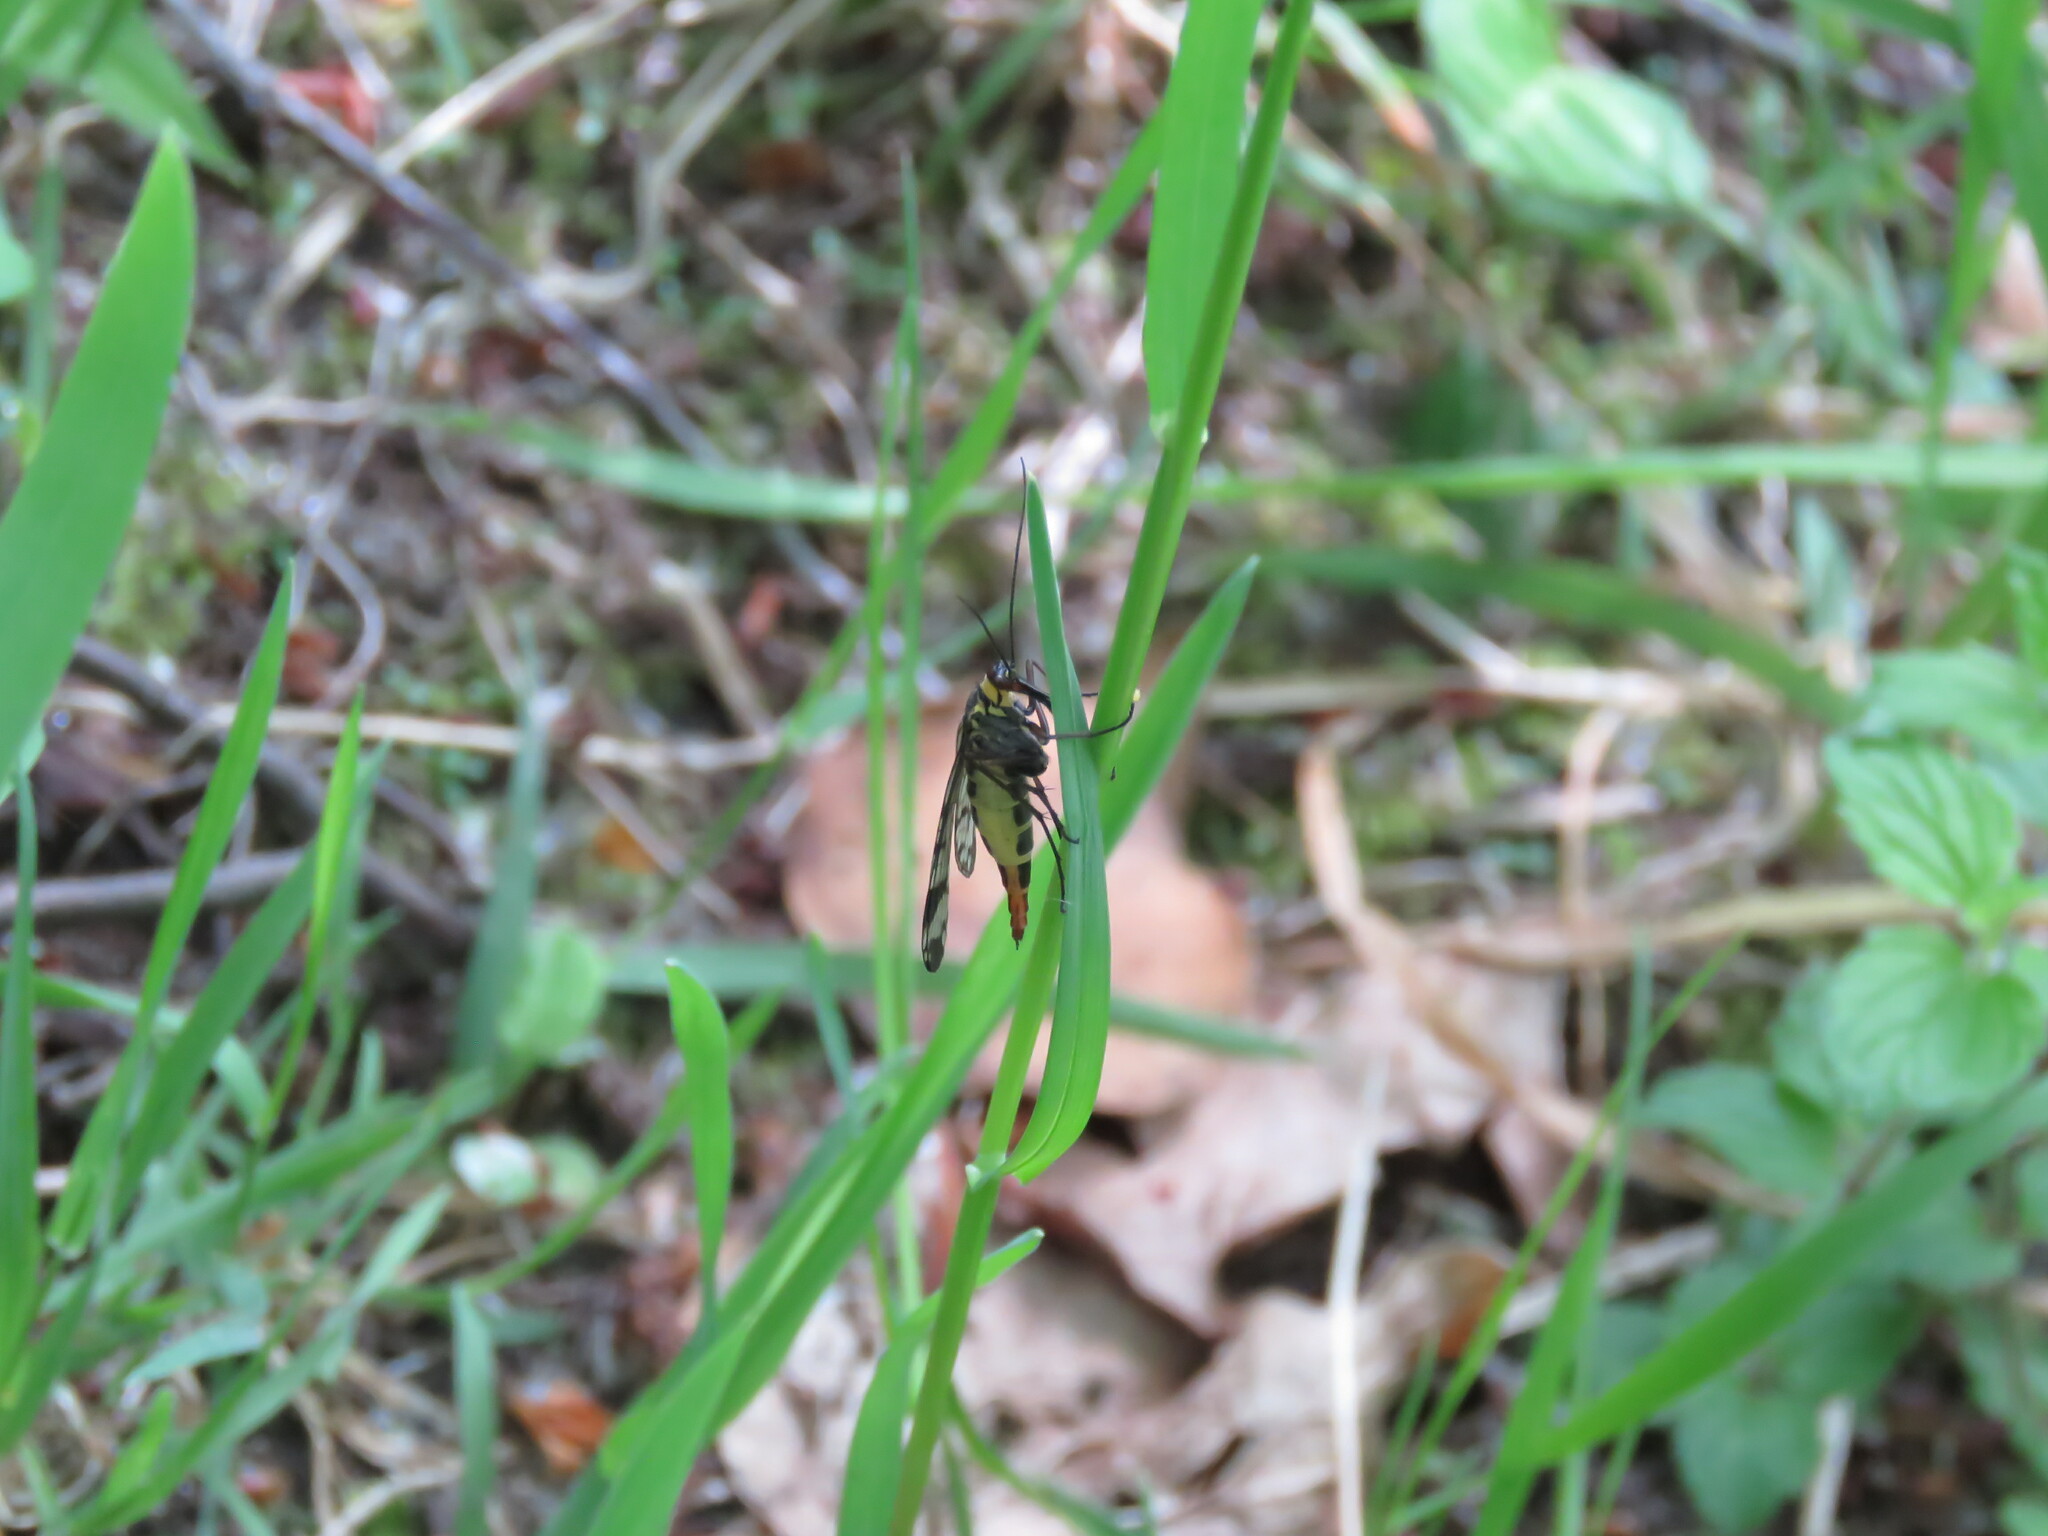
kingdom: Animalia
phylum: Arthropoda
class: Insecta
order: Mecoptera
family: Panorpidae
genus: Panorpa
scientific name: Panorpa meridionalis
